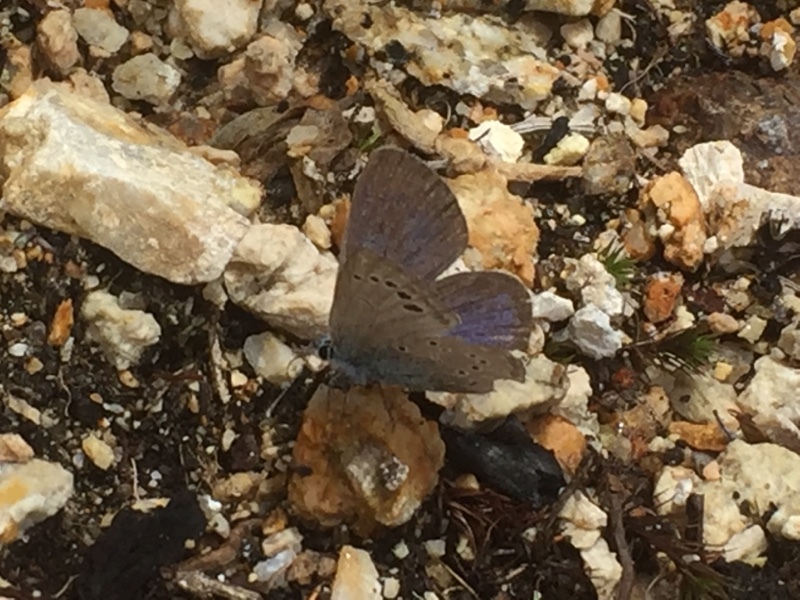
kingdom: Animalia
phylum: Arthropoda
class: Insecta
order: Lepidoptera
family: Lycaenidae
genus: Glaucopsyche
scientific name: Glaucopsyche melanops
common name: Black-eyed blue
